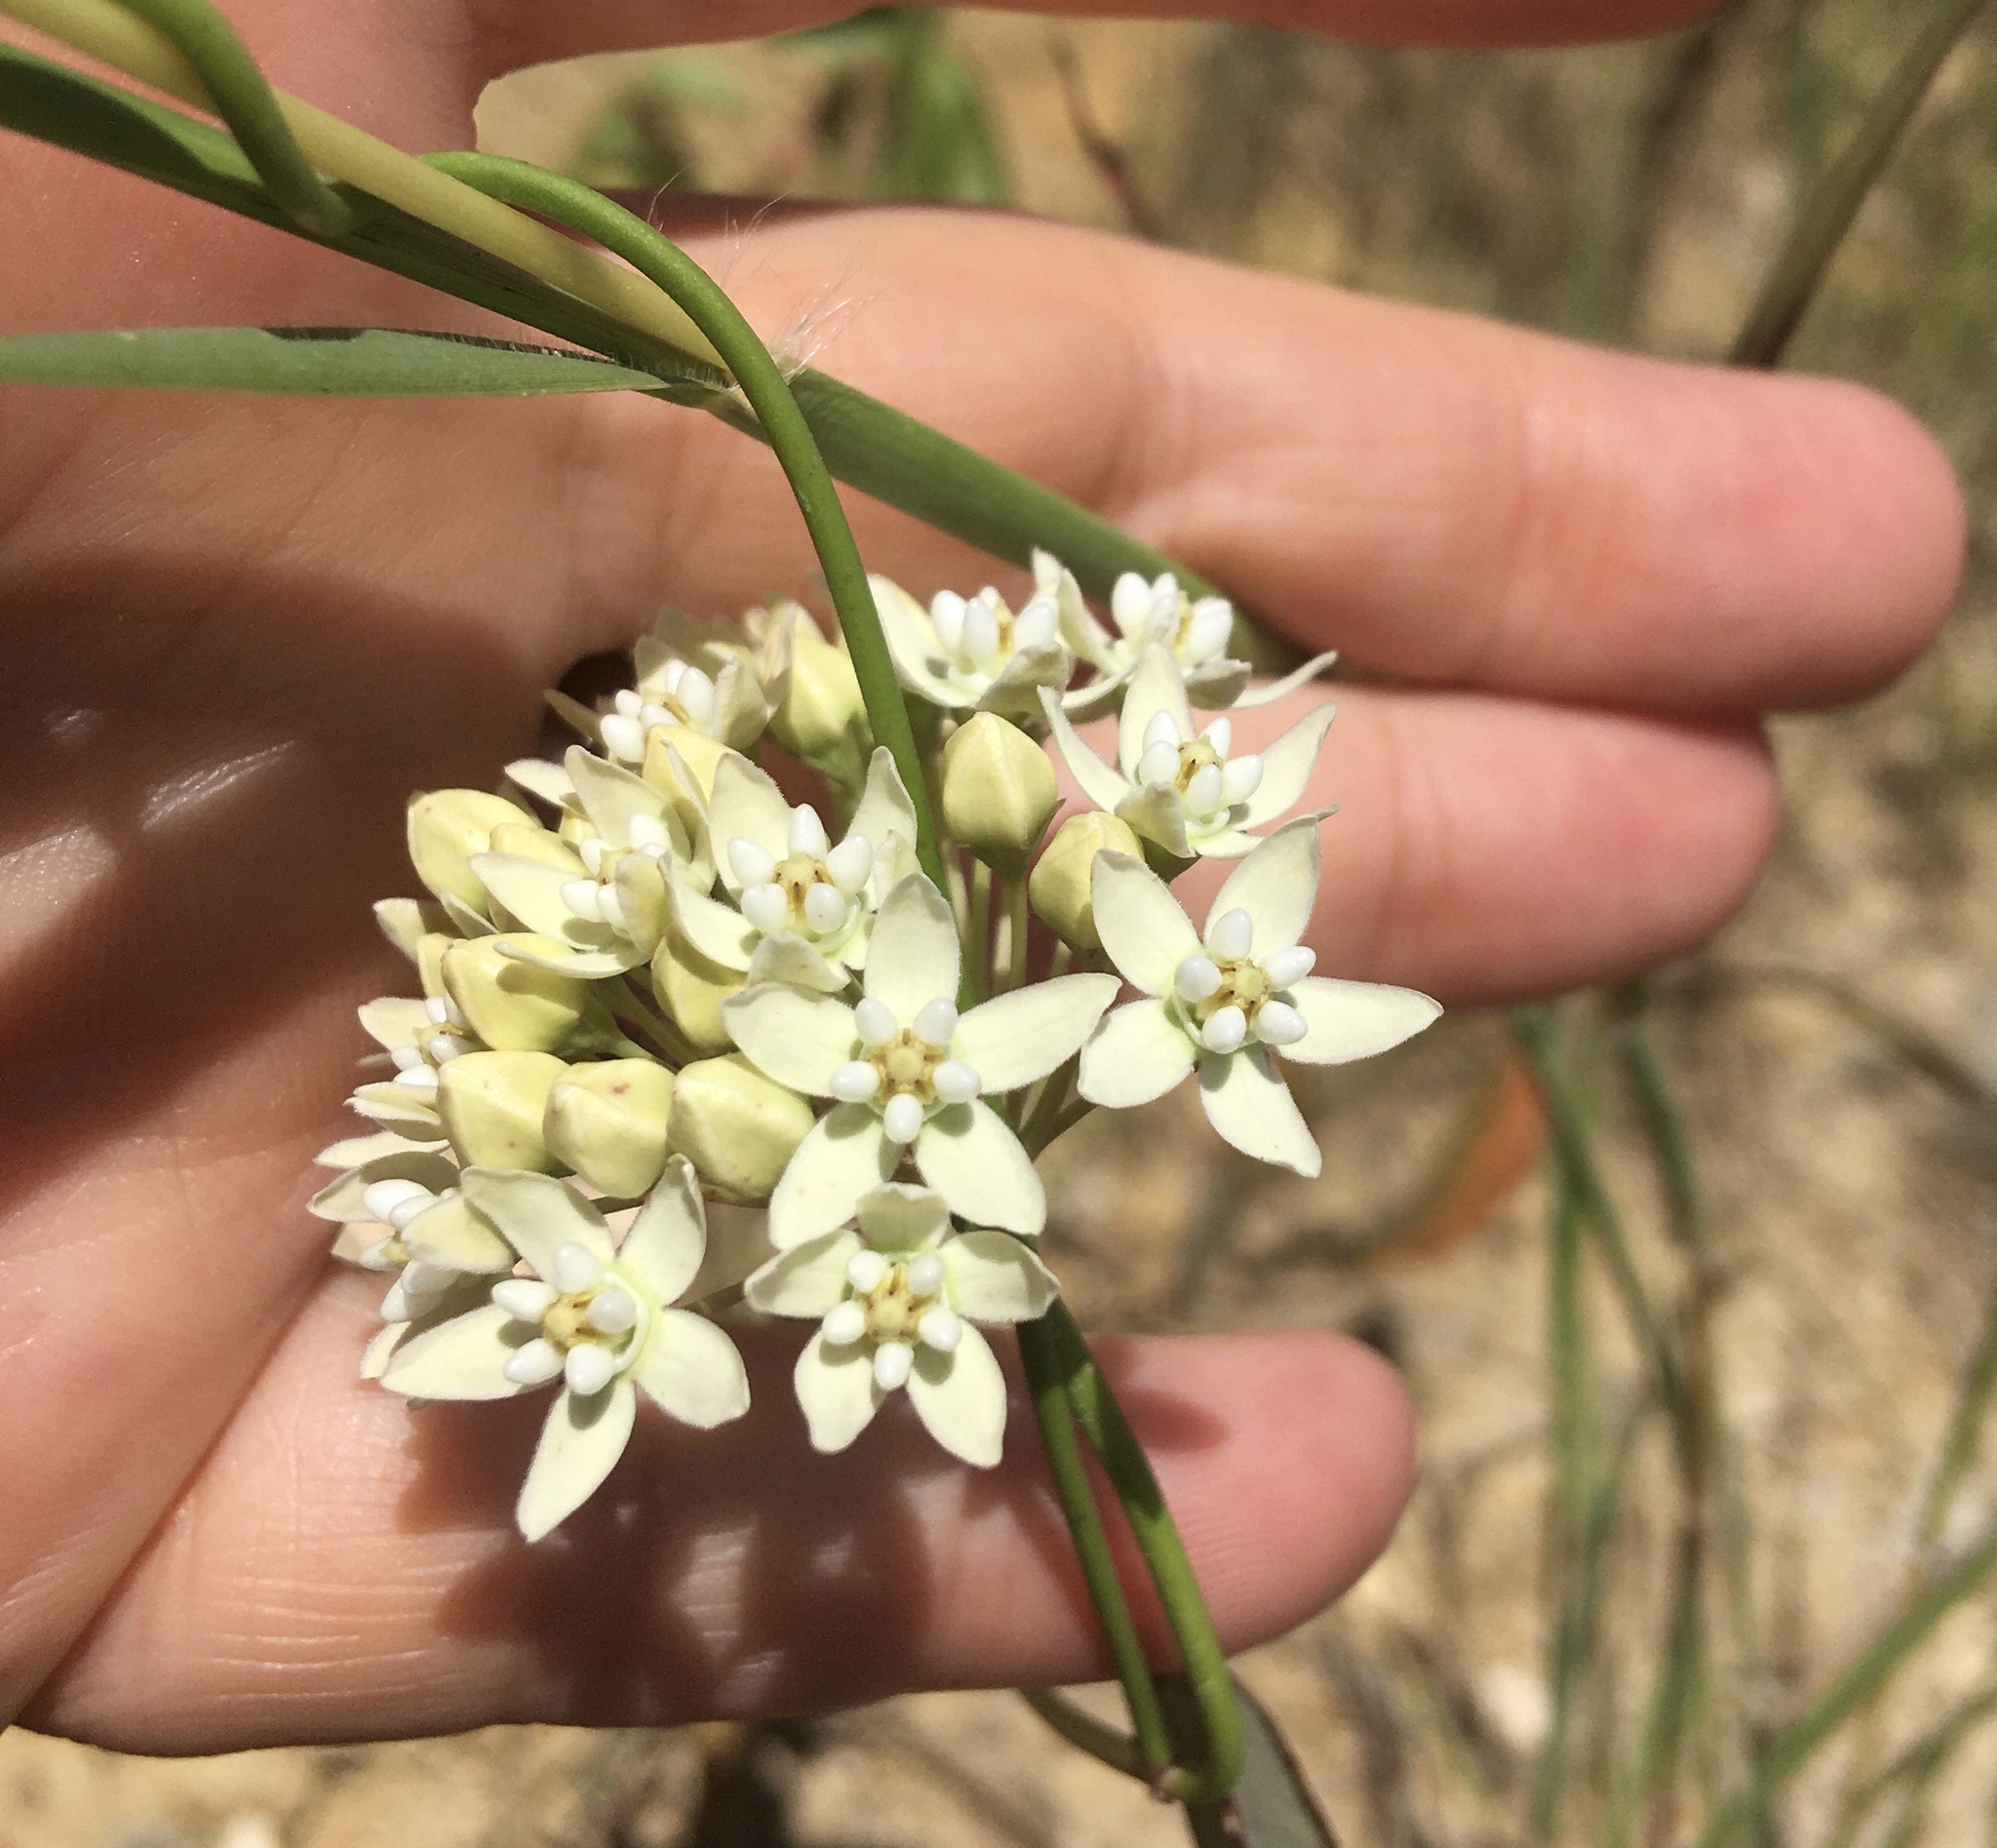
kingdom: Plantae
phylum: Tracheophyta
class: Magnoliopsida
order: Gentianales
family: Apocynaceae
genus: Funastrum
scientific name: Funastrum clausum
